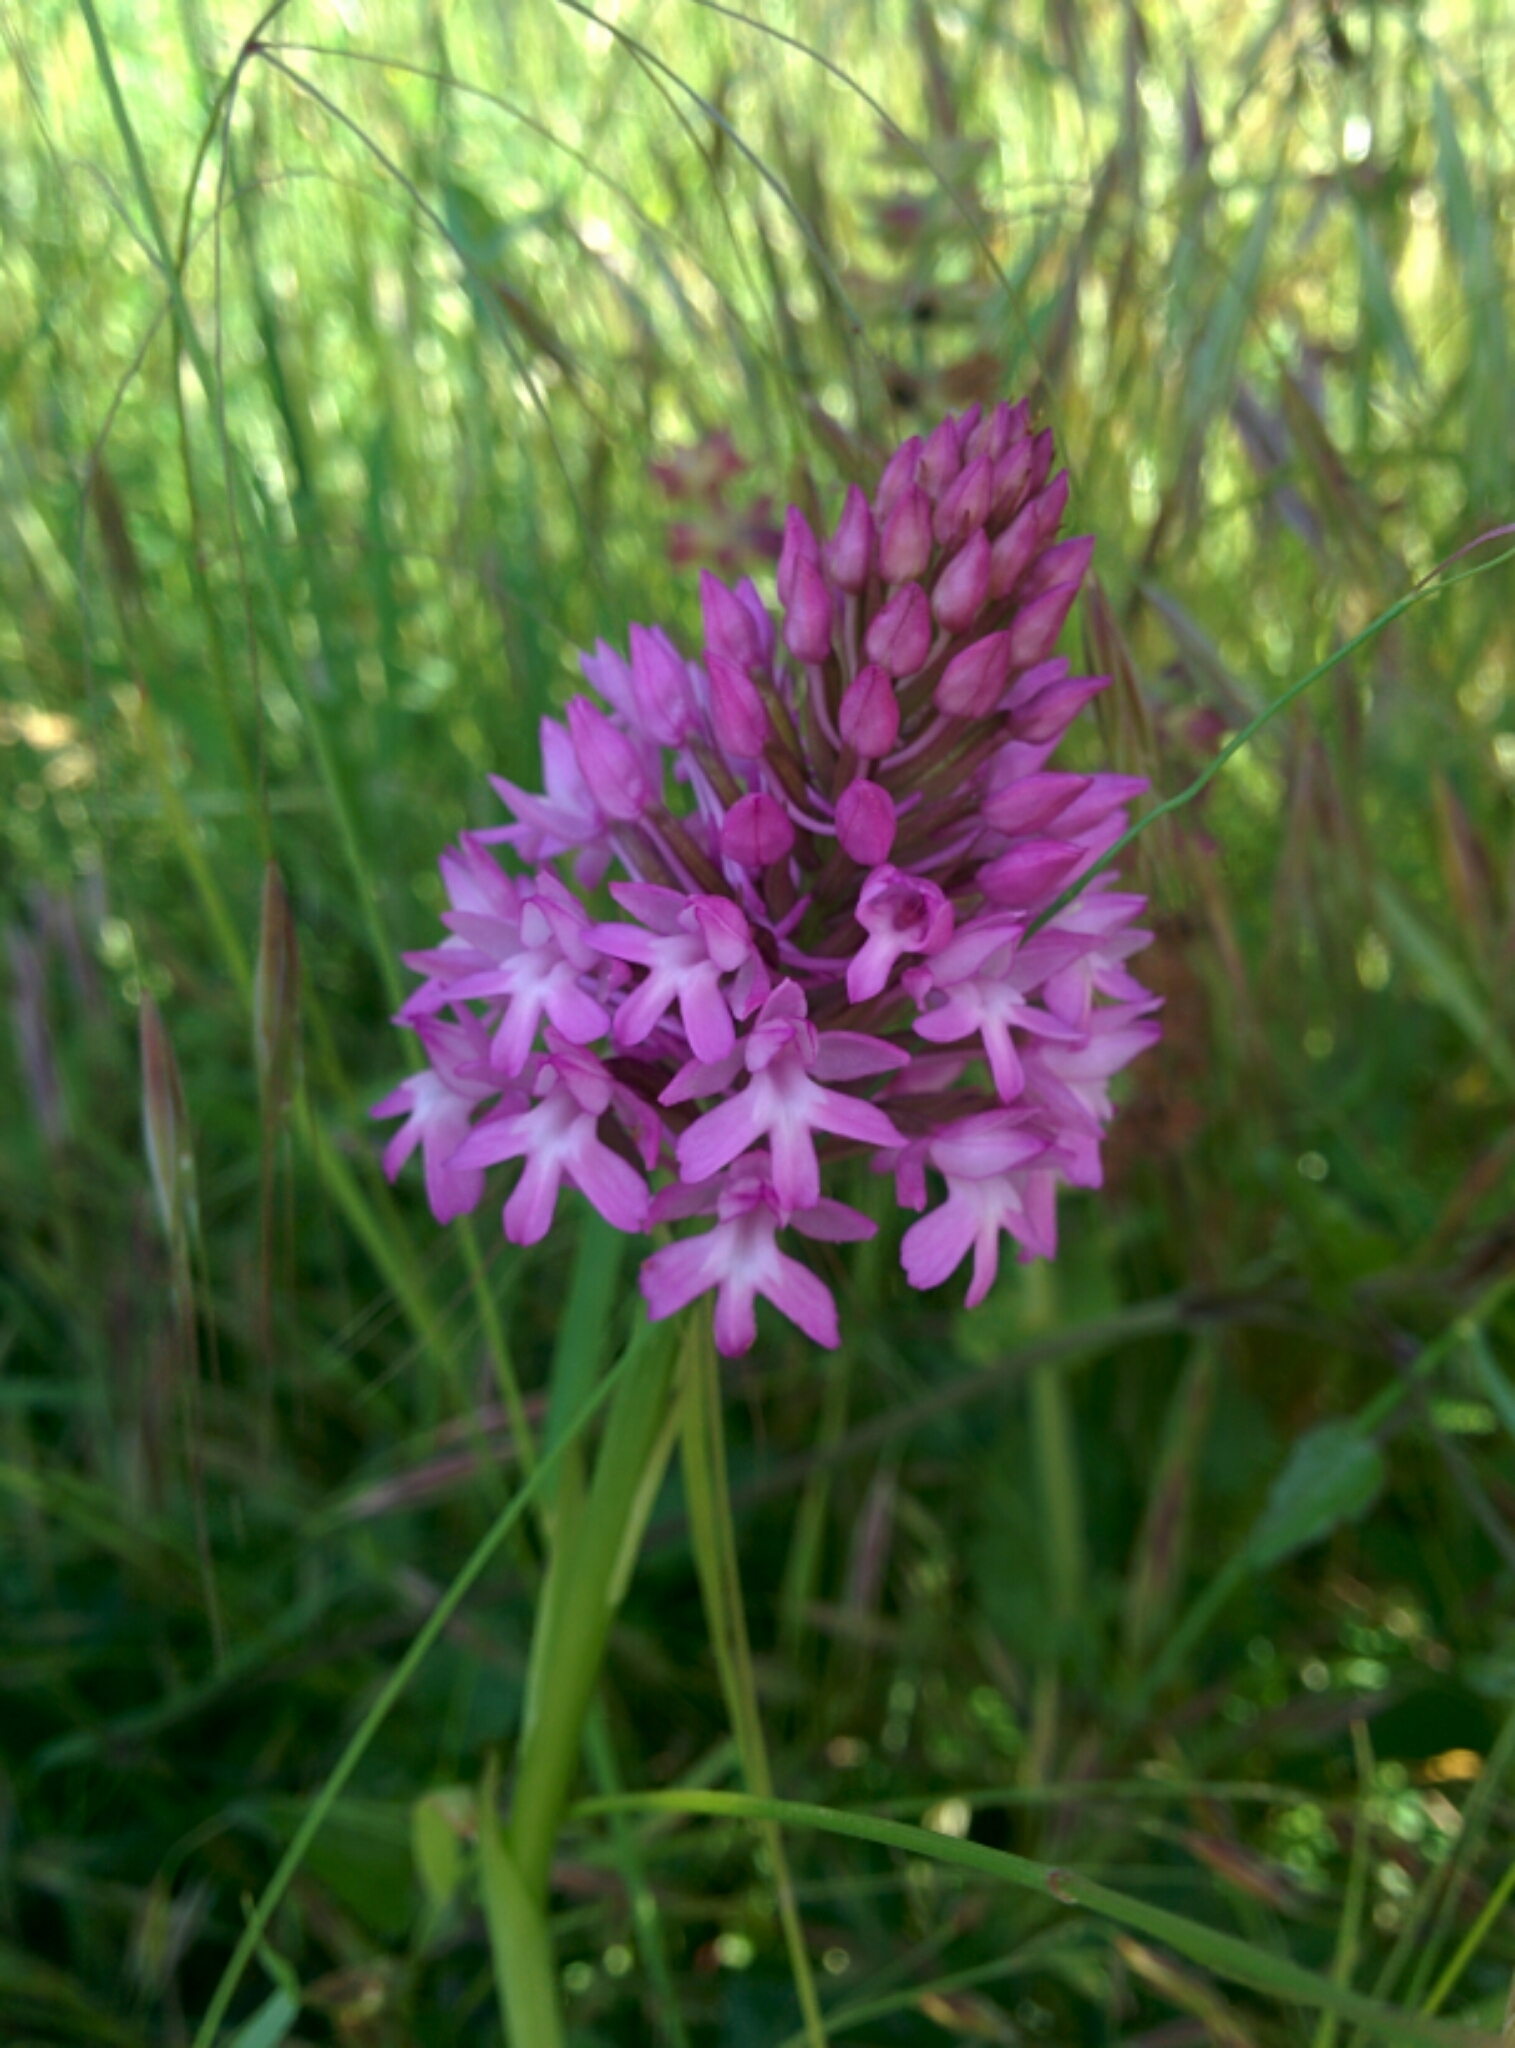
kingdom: Plantae
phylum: Tracheophyta
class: Liliopsida
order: Asparagales
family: Orchidaceae
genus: Anacamptis
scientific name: Anacamptis pyramidalis
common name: Pyramidal orchid
